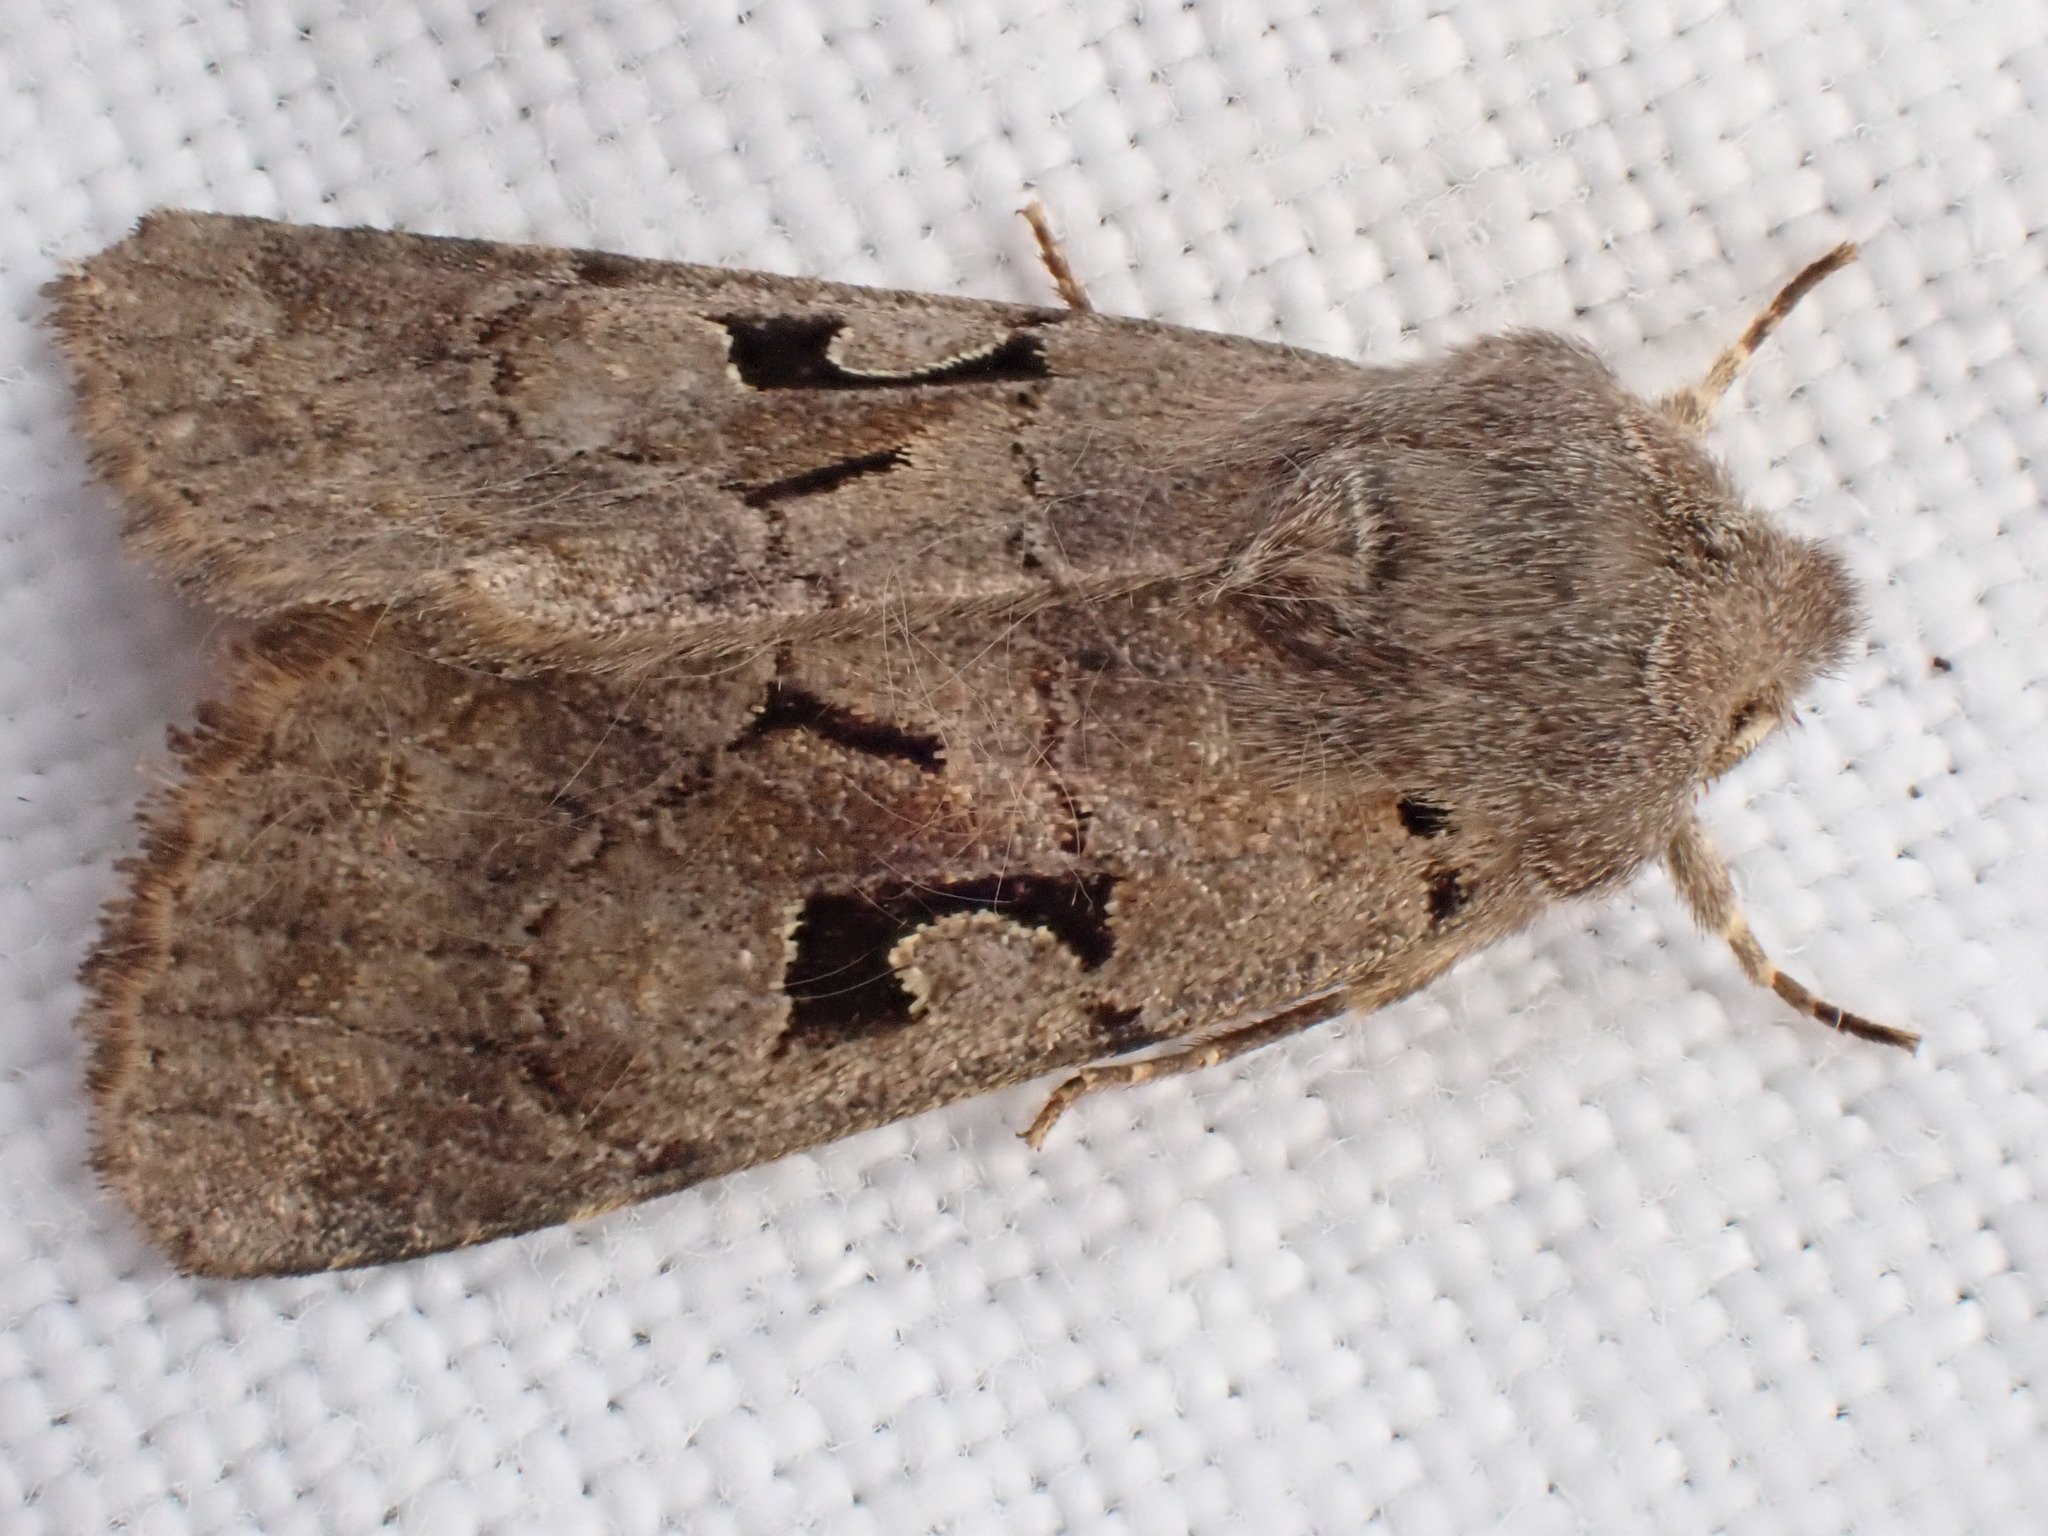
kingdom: Animalia
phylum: Arthropoda
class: Insecta
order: Lepidoptera
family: Noctuidae
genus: Orthosia
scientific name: Orthosia gothica
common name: Hebrew character
